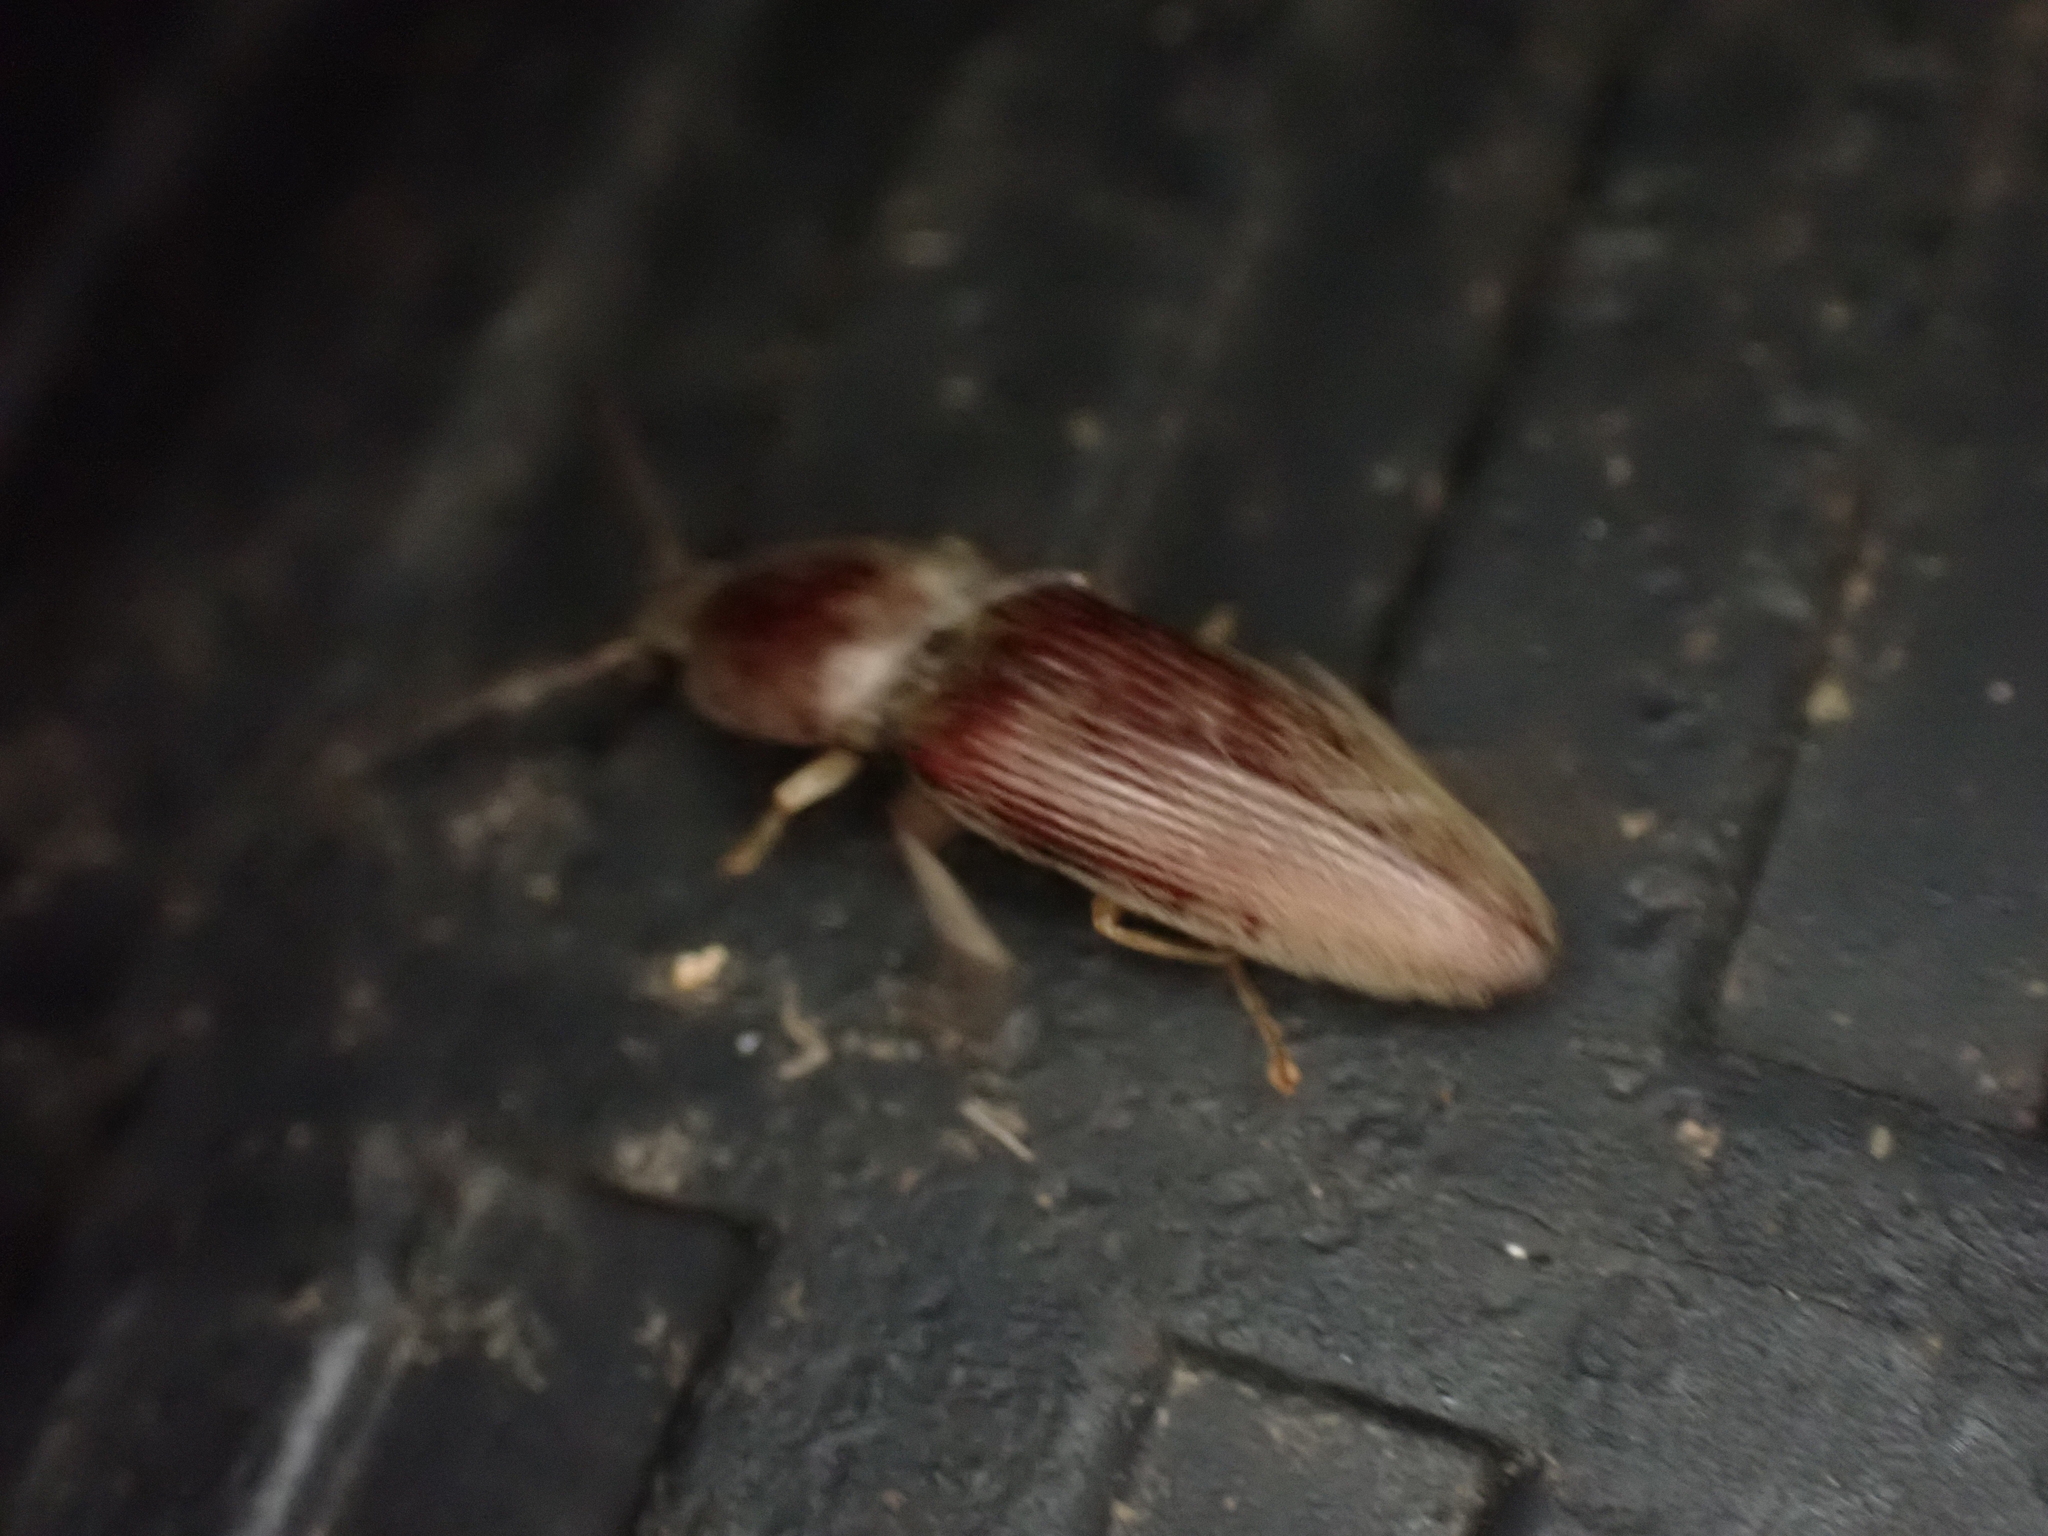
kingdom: Animalia
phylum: Arthropoda
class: Insecta
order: Coleoptera
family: Elateridae
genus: Monocrepidius
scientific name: Monocrepidius lividus
